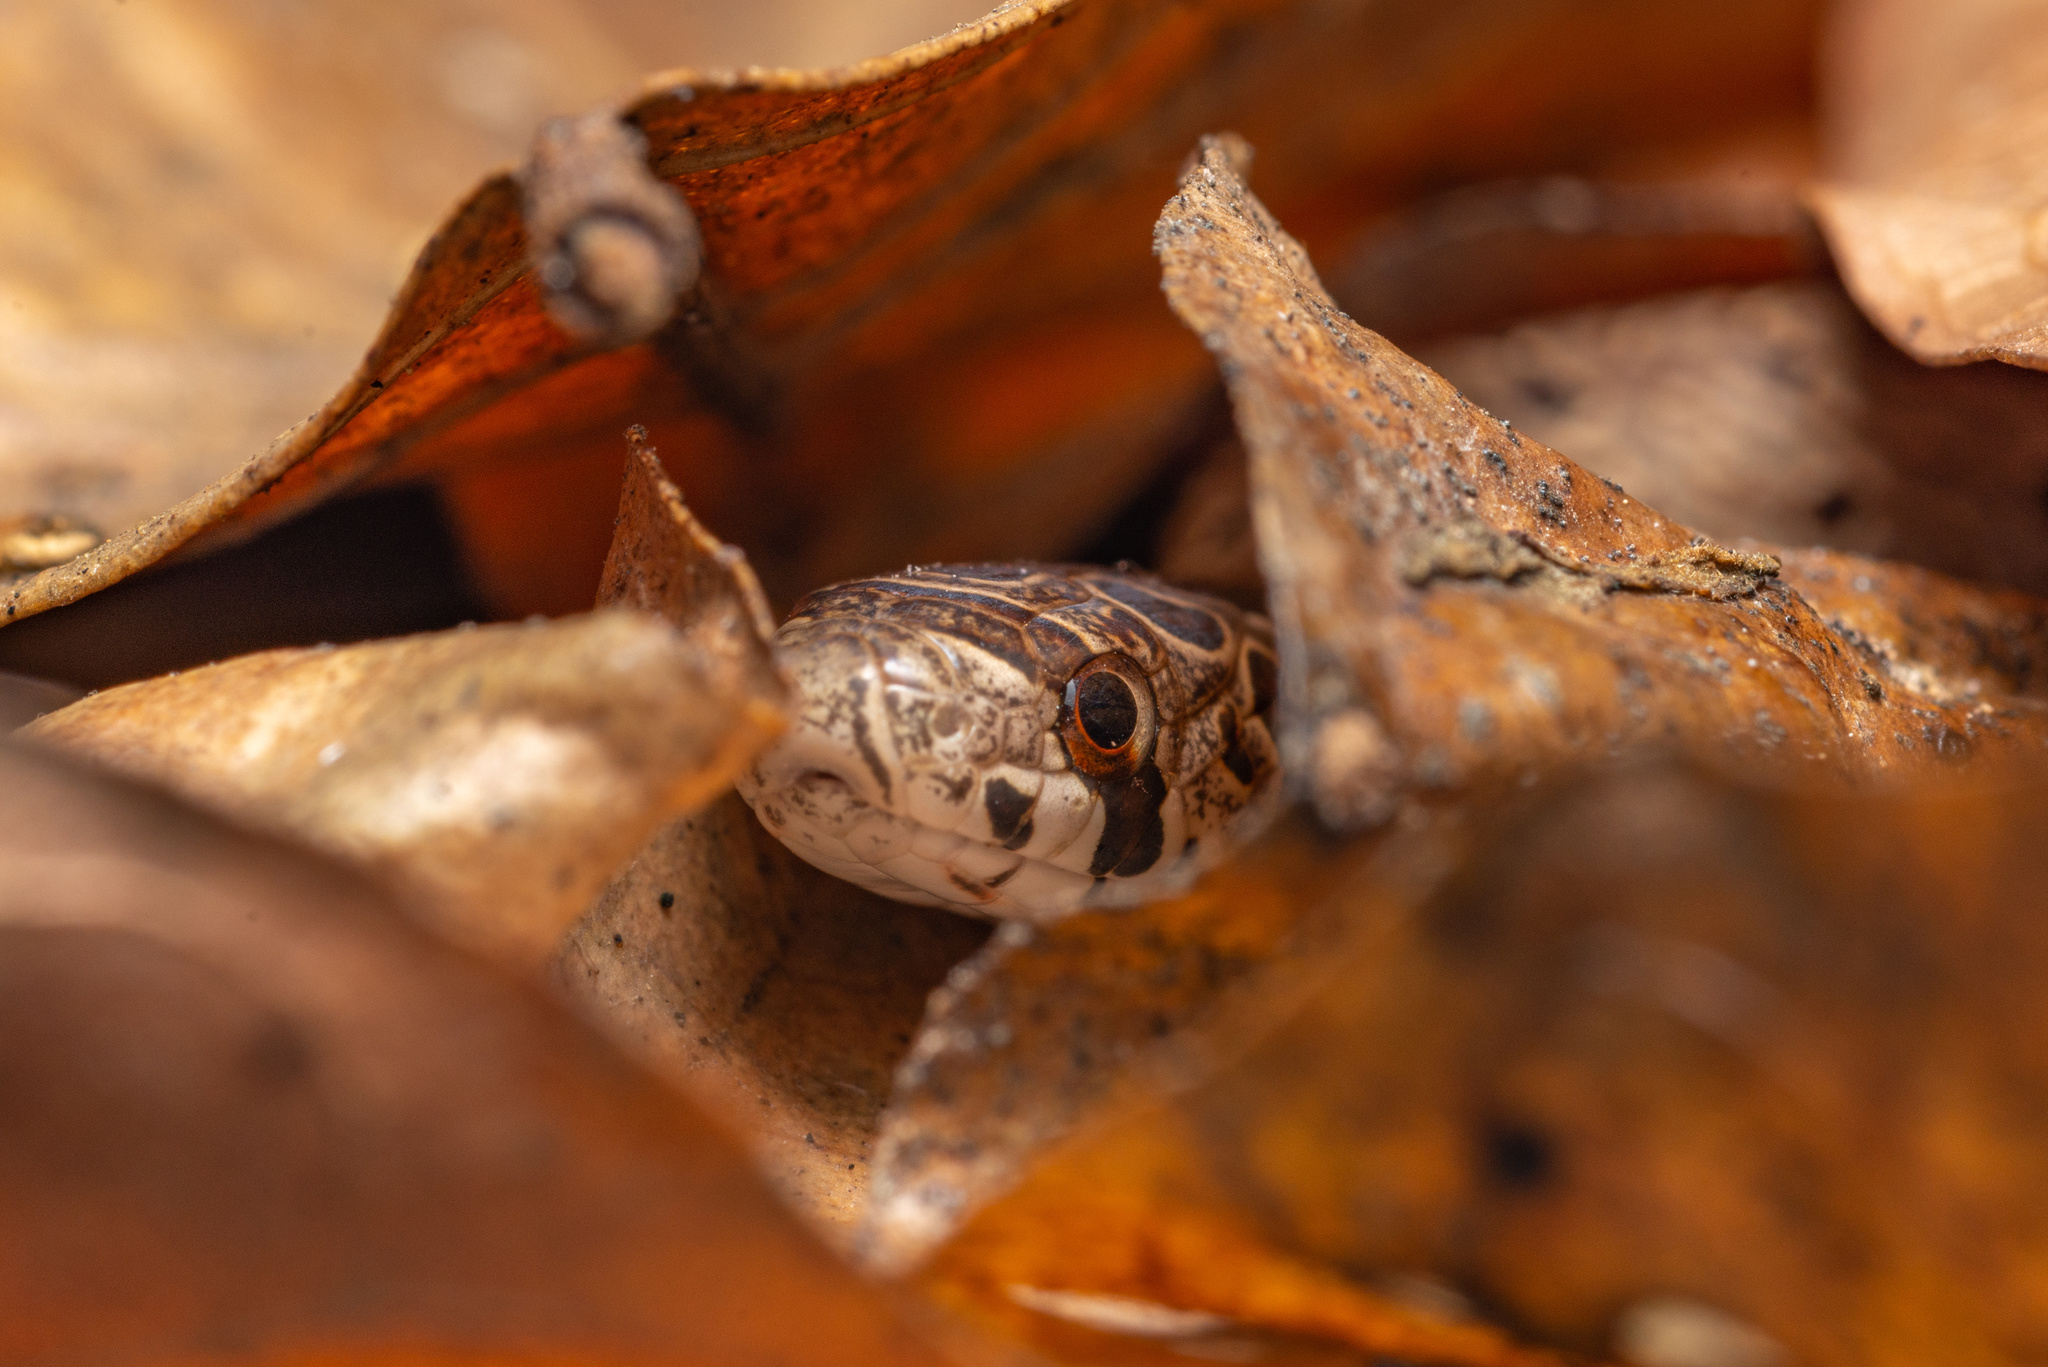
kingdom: Animalia
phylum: Chordata
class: Squamata
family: Colubridae
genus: Oligodon
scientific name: Oligodon formosanus
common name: Formosa kukri snake
